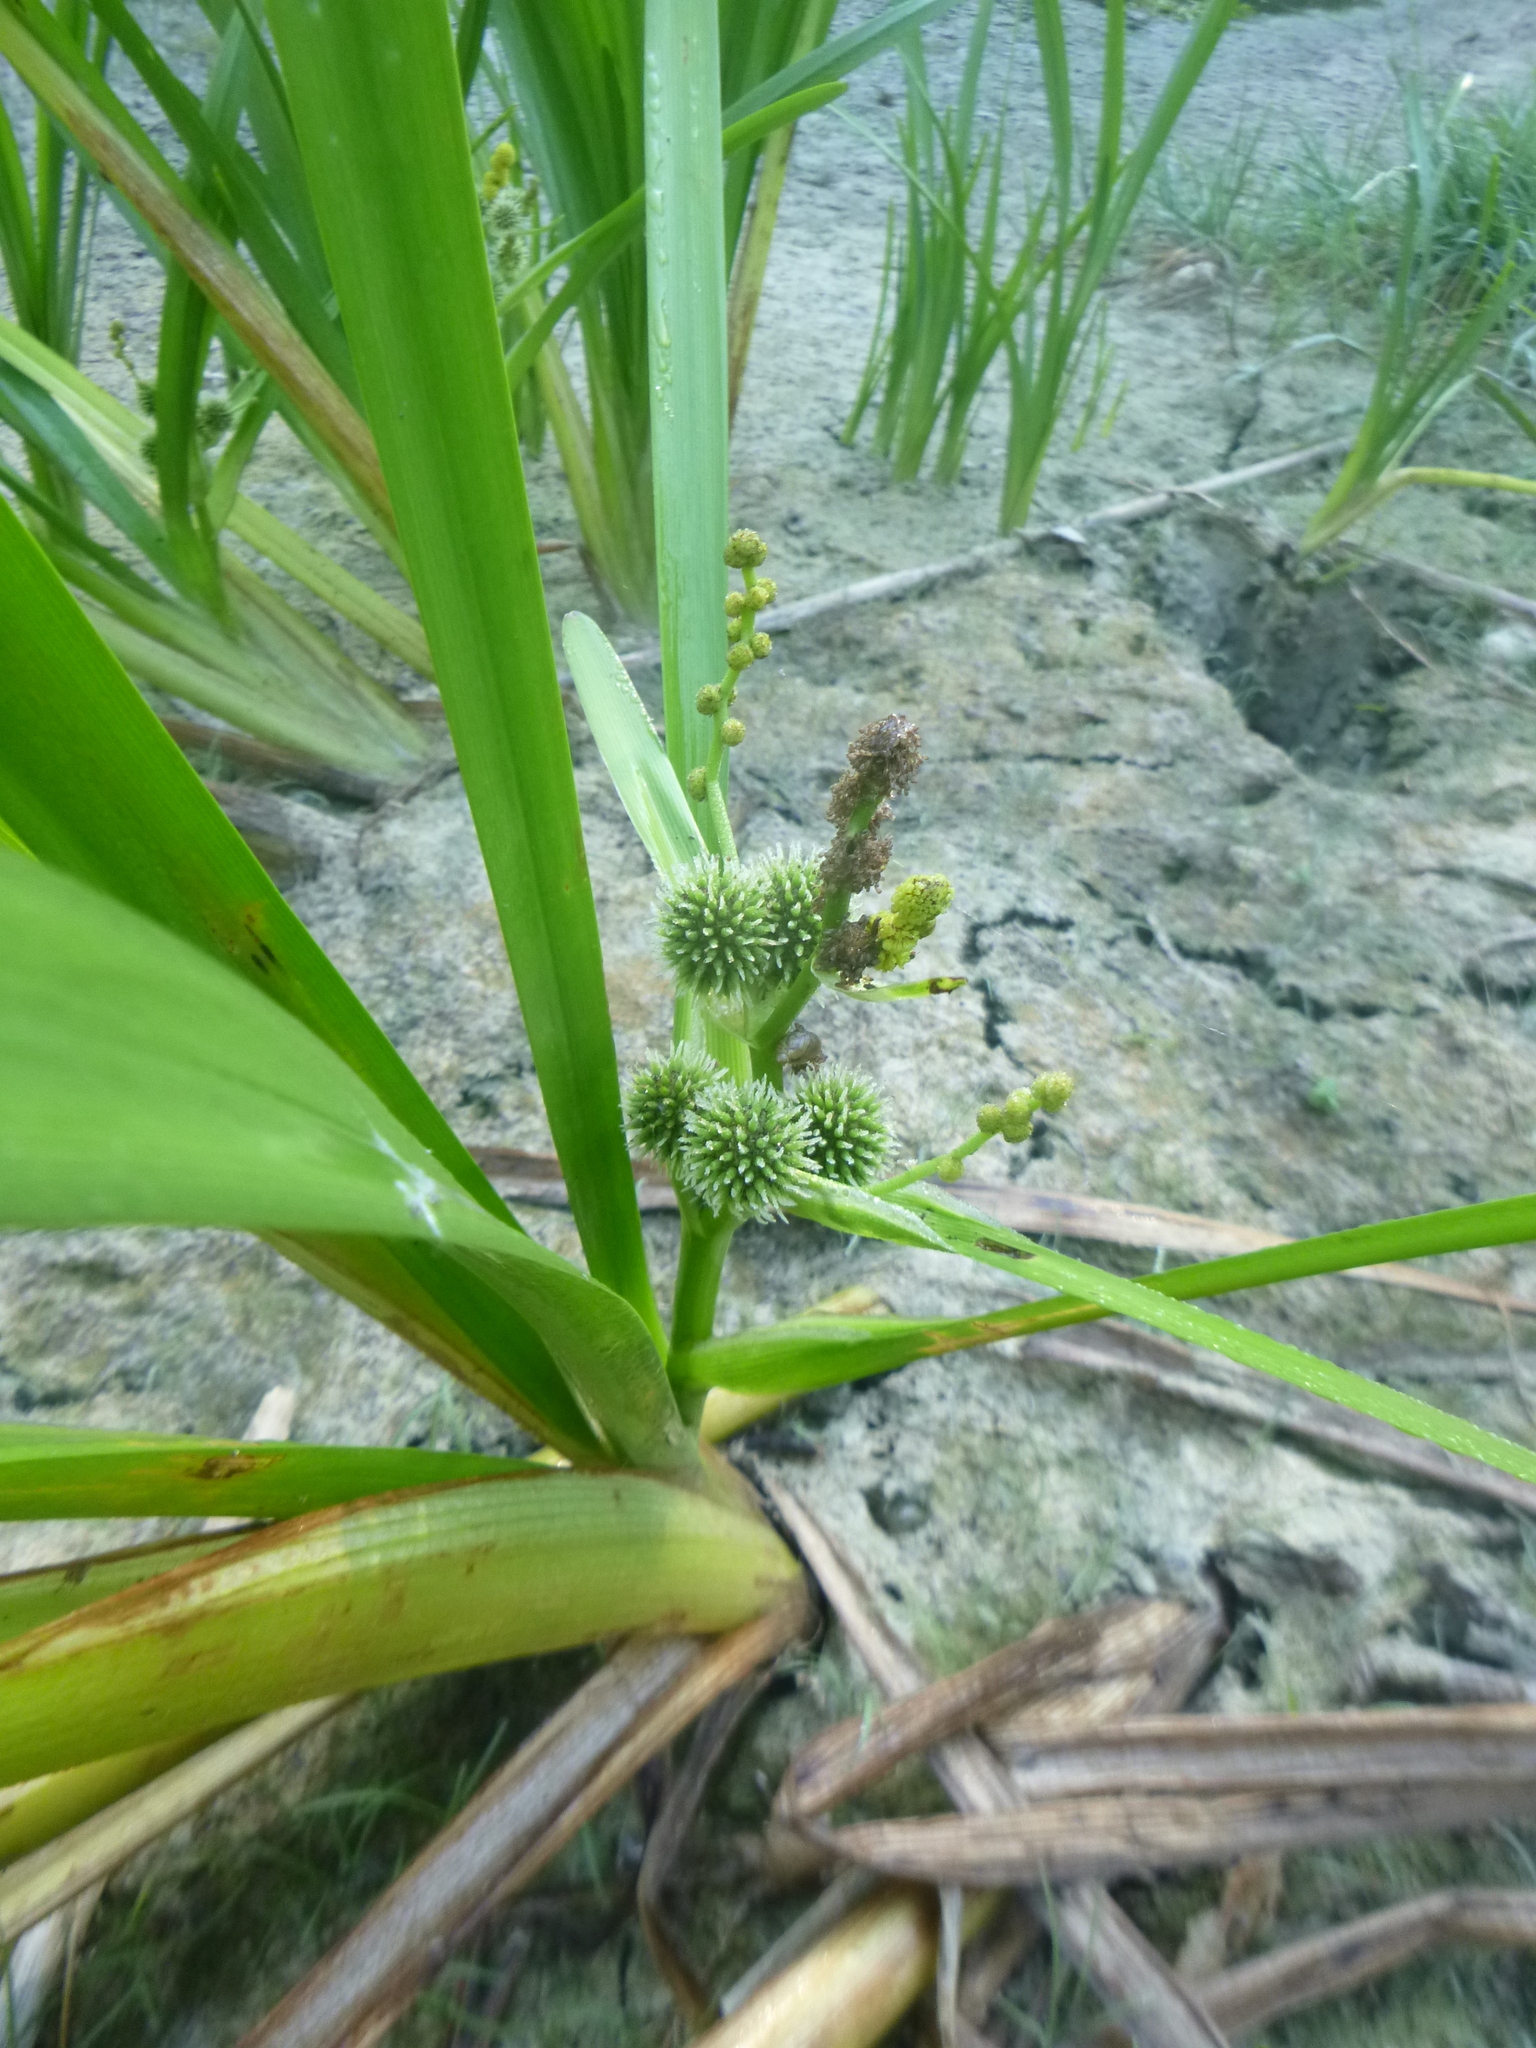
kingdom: Plantae
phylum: Tracheophyta
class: Liliopsida
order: Poales
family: Typhaceae
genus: Sparganium
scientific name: Sparganium erectum
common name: Branched bur-reed
